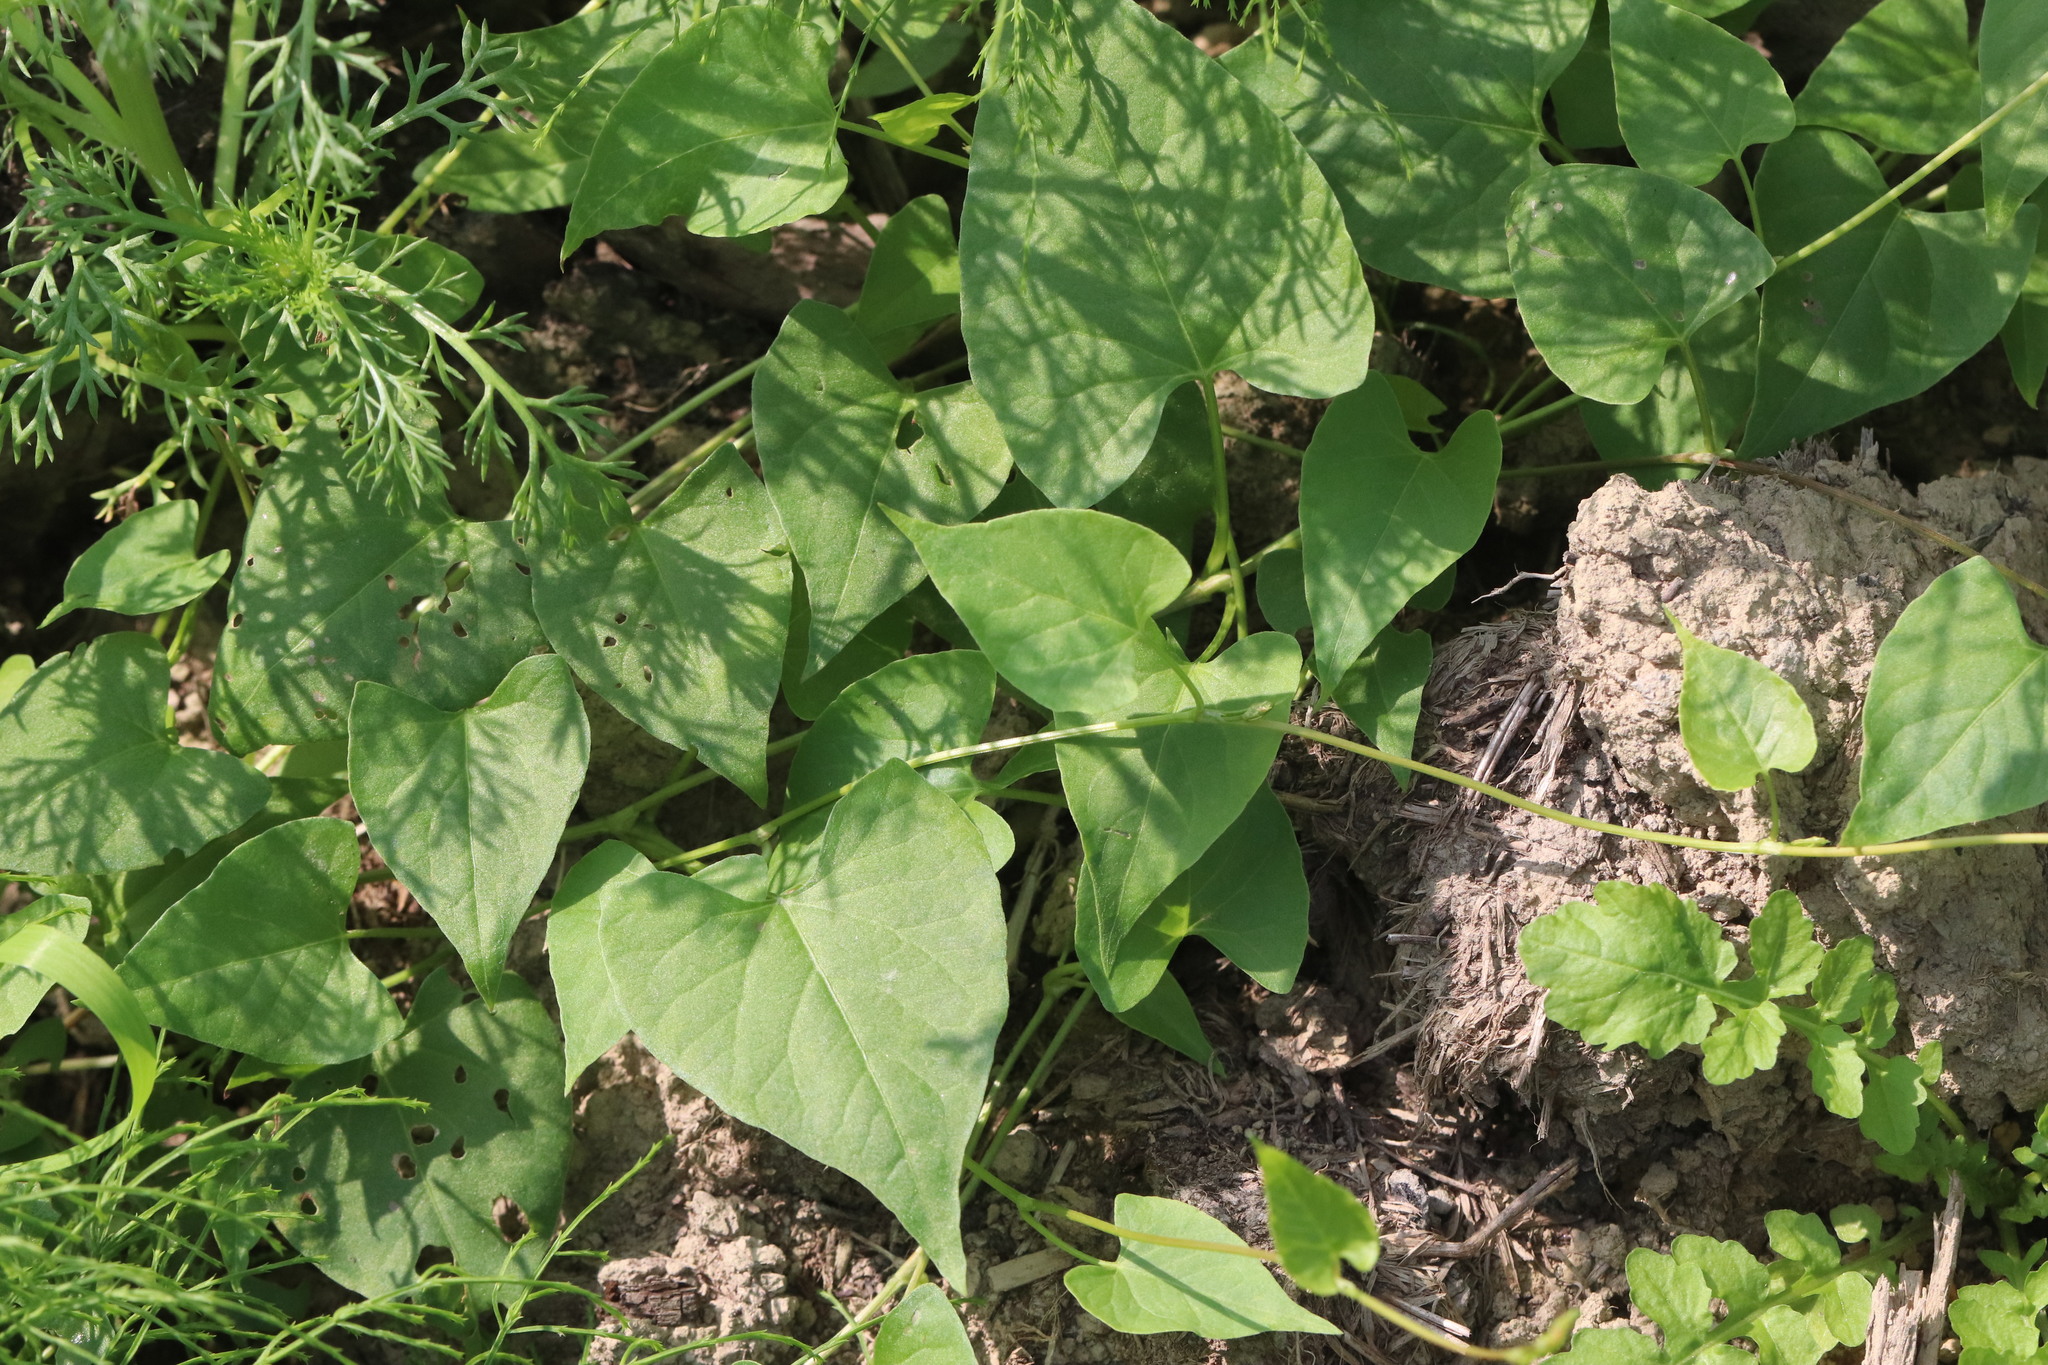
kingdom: Plantae
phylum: Tracheophyta
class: Magnoliopsida
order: Caryophyllales
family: Polygonaceae
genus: Fallopia
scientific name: Fallopia convolvulus
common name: Black bindweed
